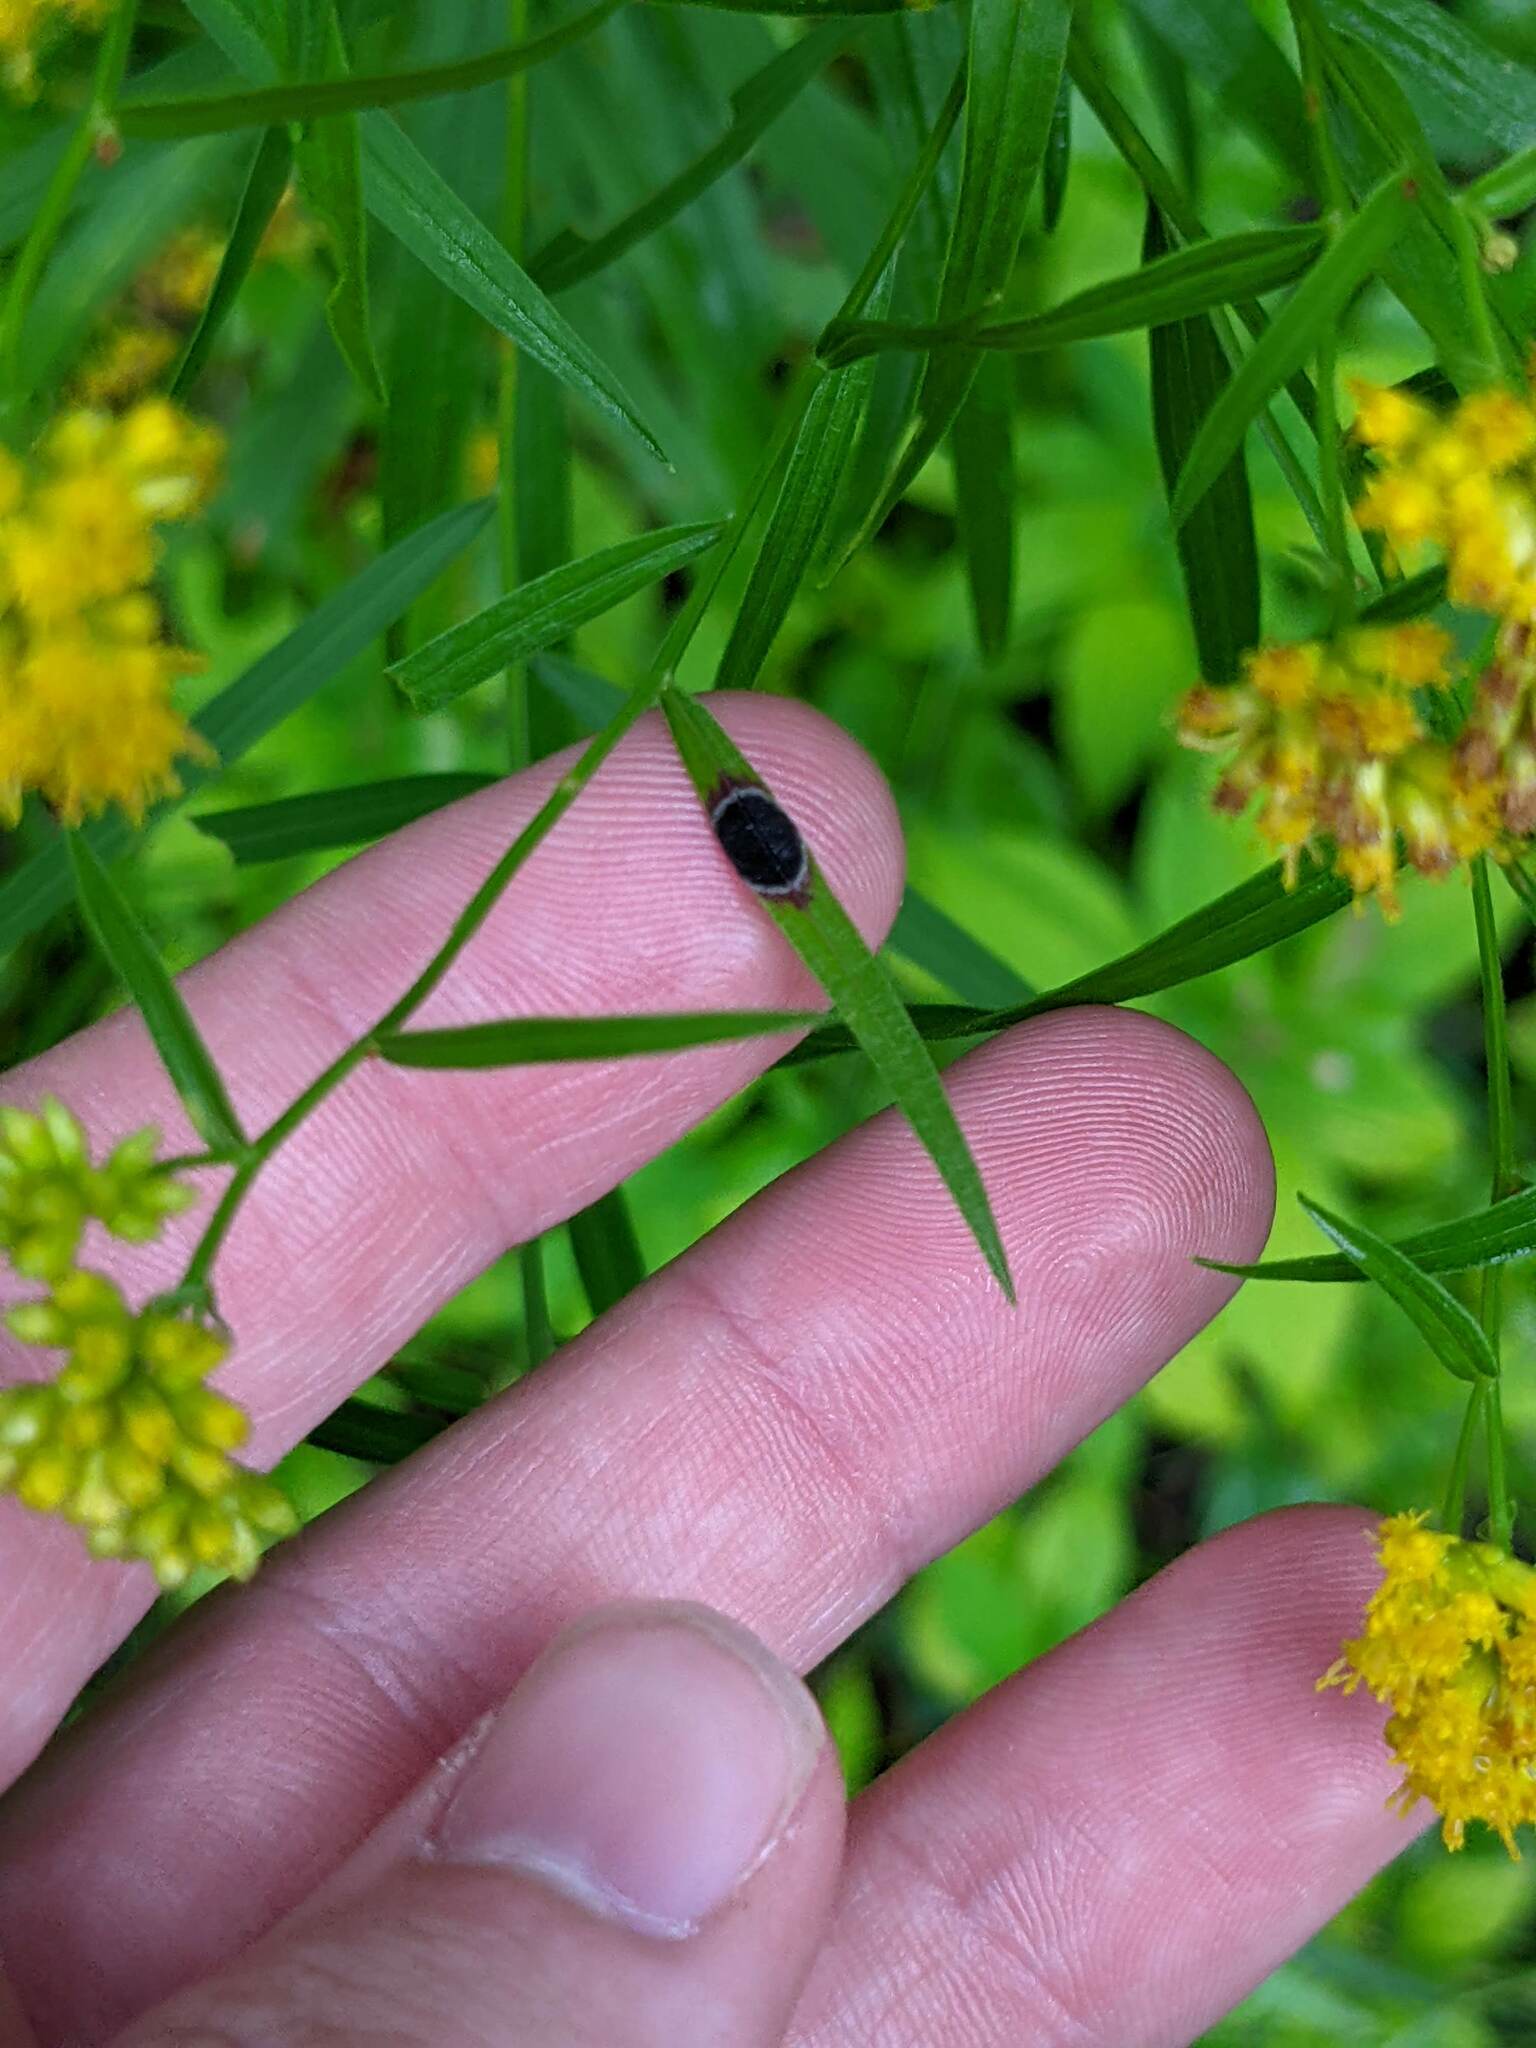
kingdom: Animalia
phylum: Arthropoda
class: Insecta
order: Diptera
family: Cecidomyiidae
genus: Asteromyia
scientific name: Asteromyia euthamiae
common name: Euthamia leaf gall midge
